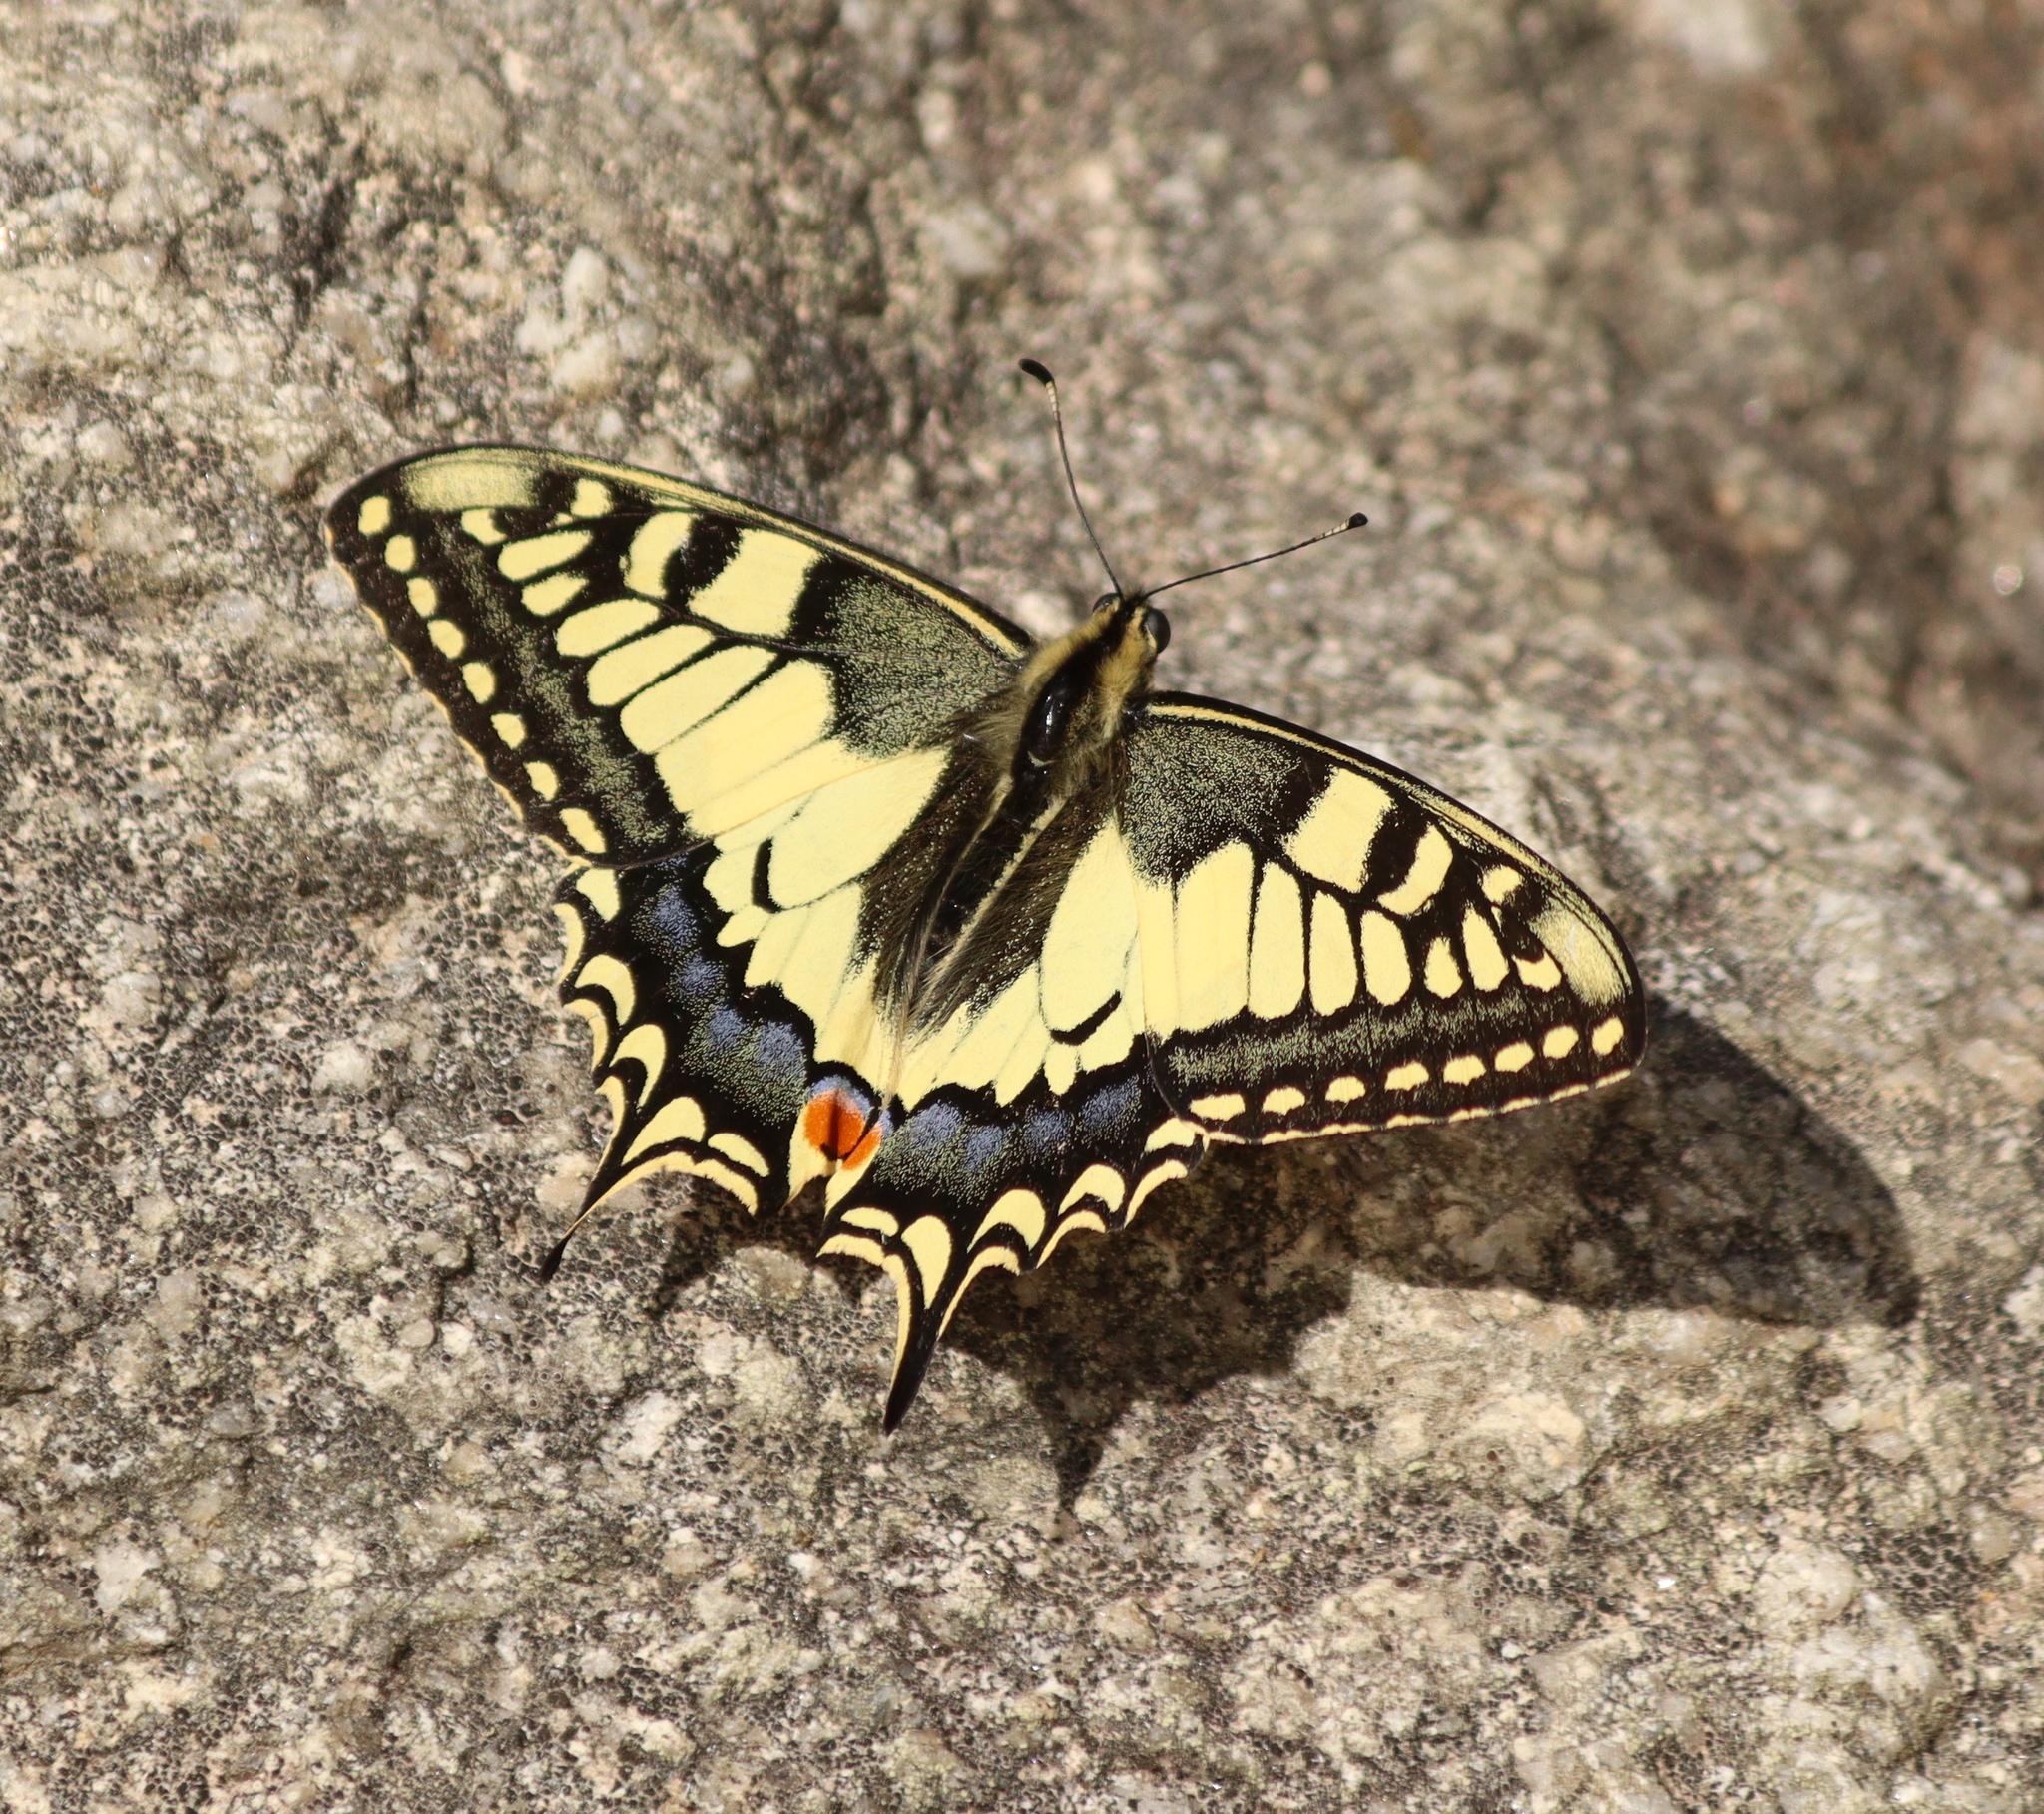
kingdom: Animalia
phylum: Arthropoda
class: Insecta
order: Lepidoptera
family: Papilionidae
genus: Papilio
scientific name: Papilio machaon
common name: Swallowtail
